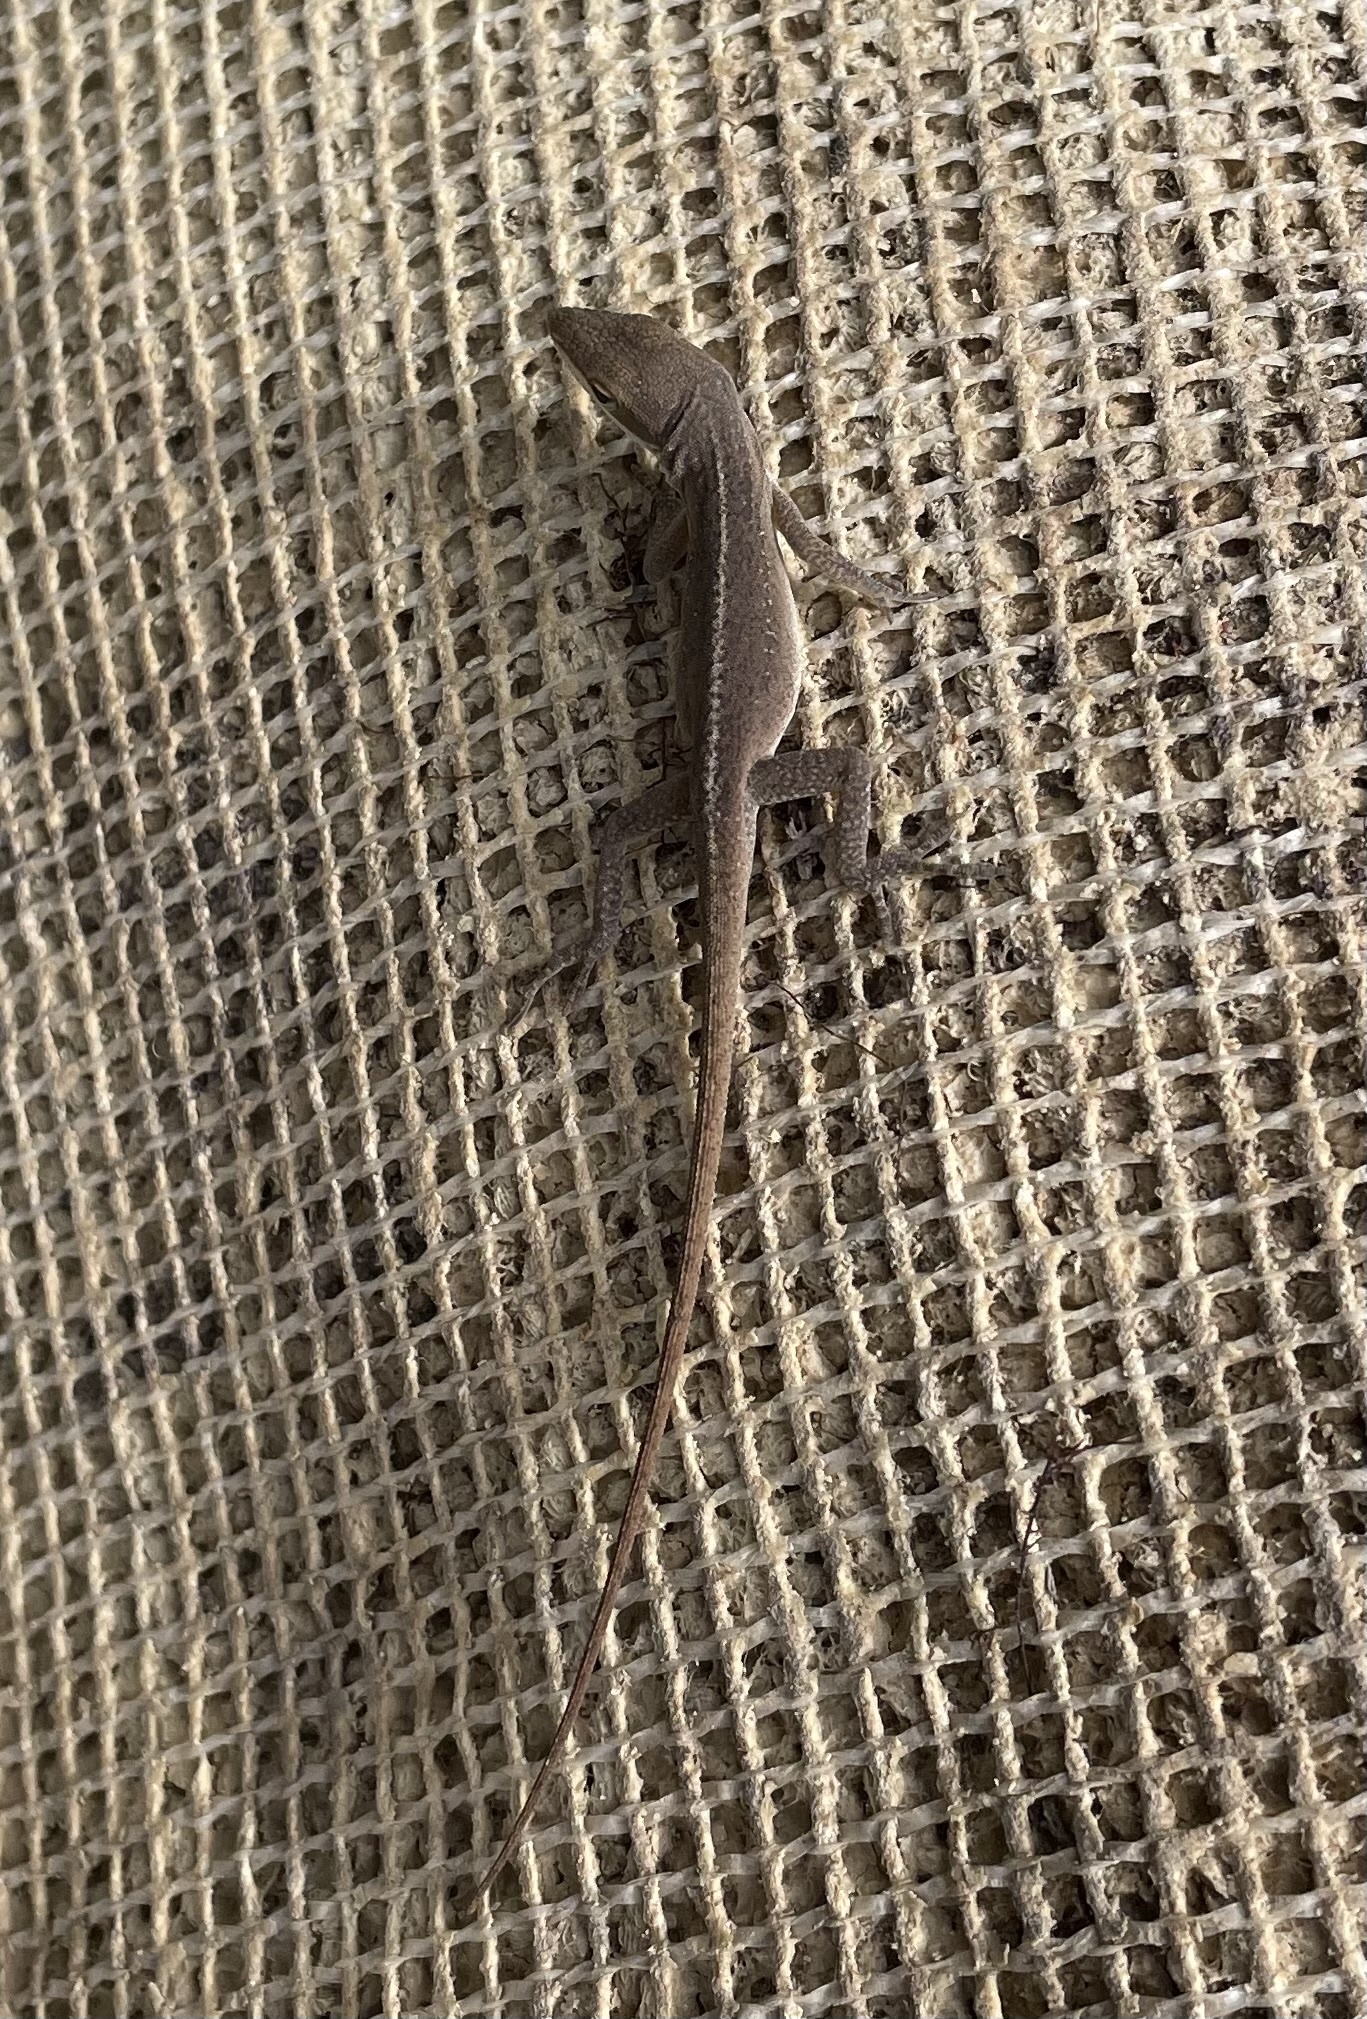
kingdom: Animalia
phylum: Chordata
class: Squamata
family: Dactyloidae
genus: Anolis
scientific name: Anolis carolinensis
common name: Green anole
